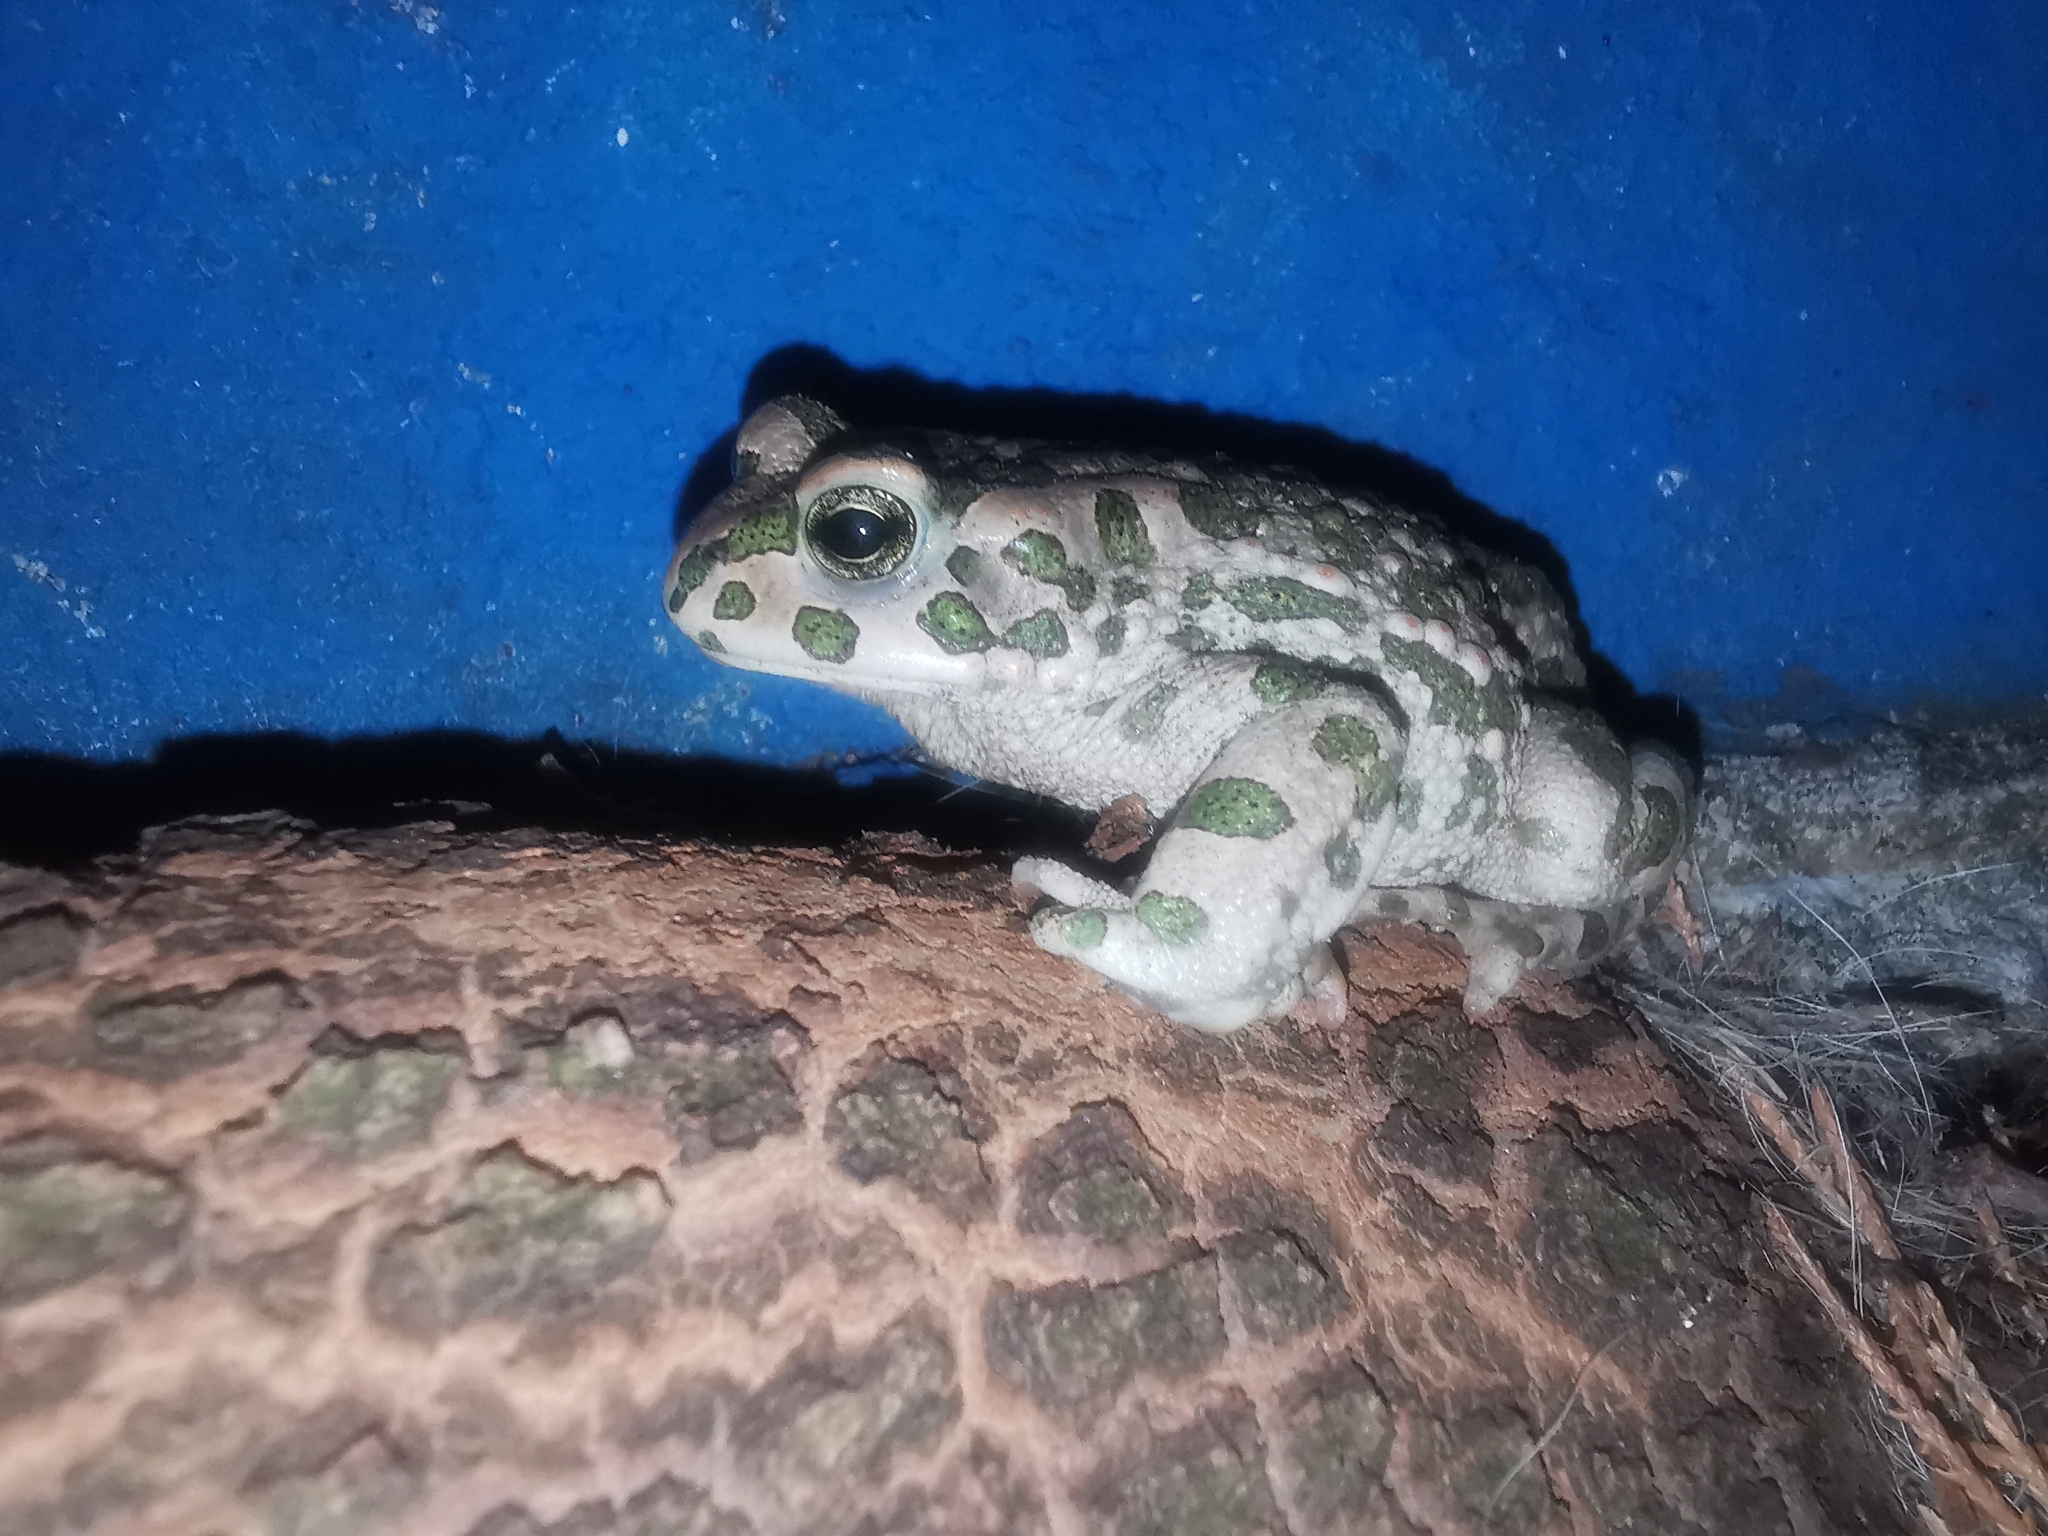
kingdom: Animalia
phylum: Chordata
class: Amphibia
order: Anura
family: Bufonidae
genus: Bufotes
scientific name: Bufotes viridis
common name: European green toad
